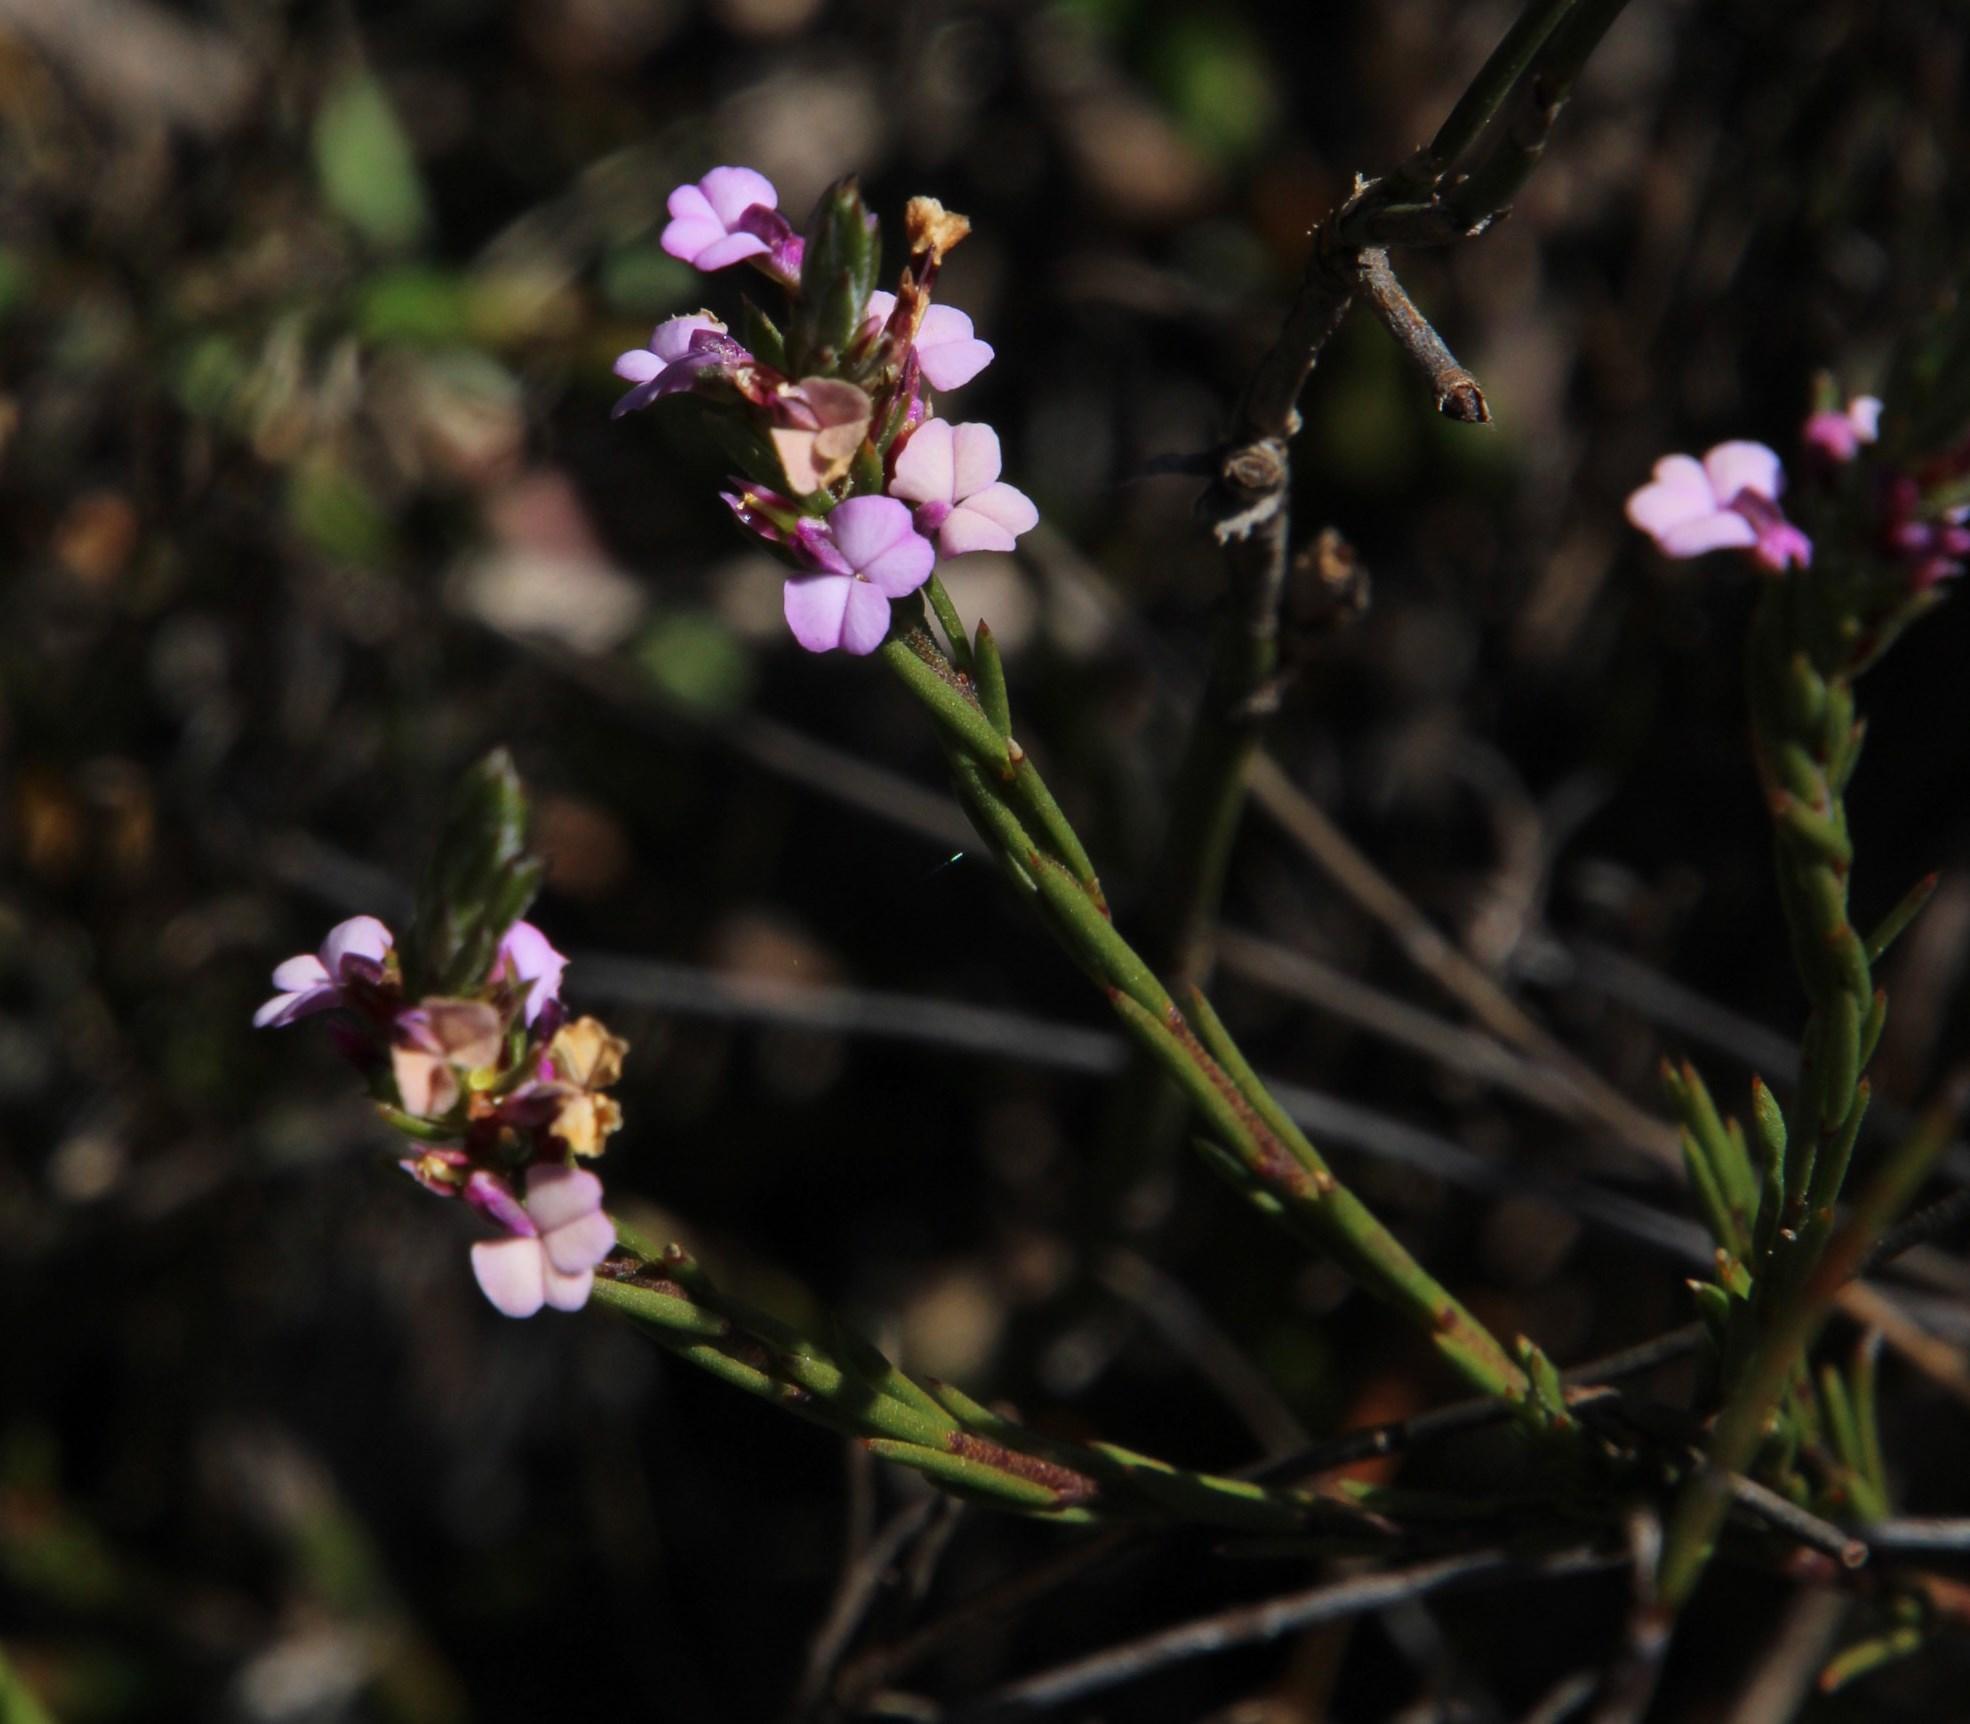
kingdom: Plantae
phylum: Tracheophyta
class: Magnoliopsida
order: Fabales
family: Polygalaceae
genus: Muraltia
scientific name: Muraltia filiformis
